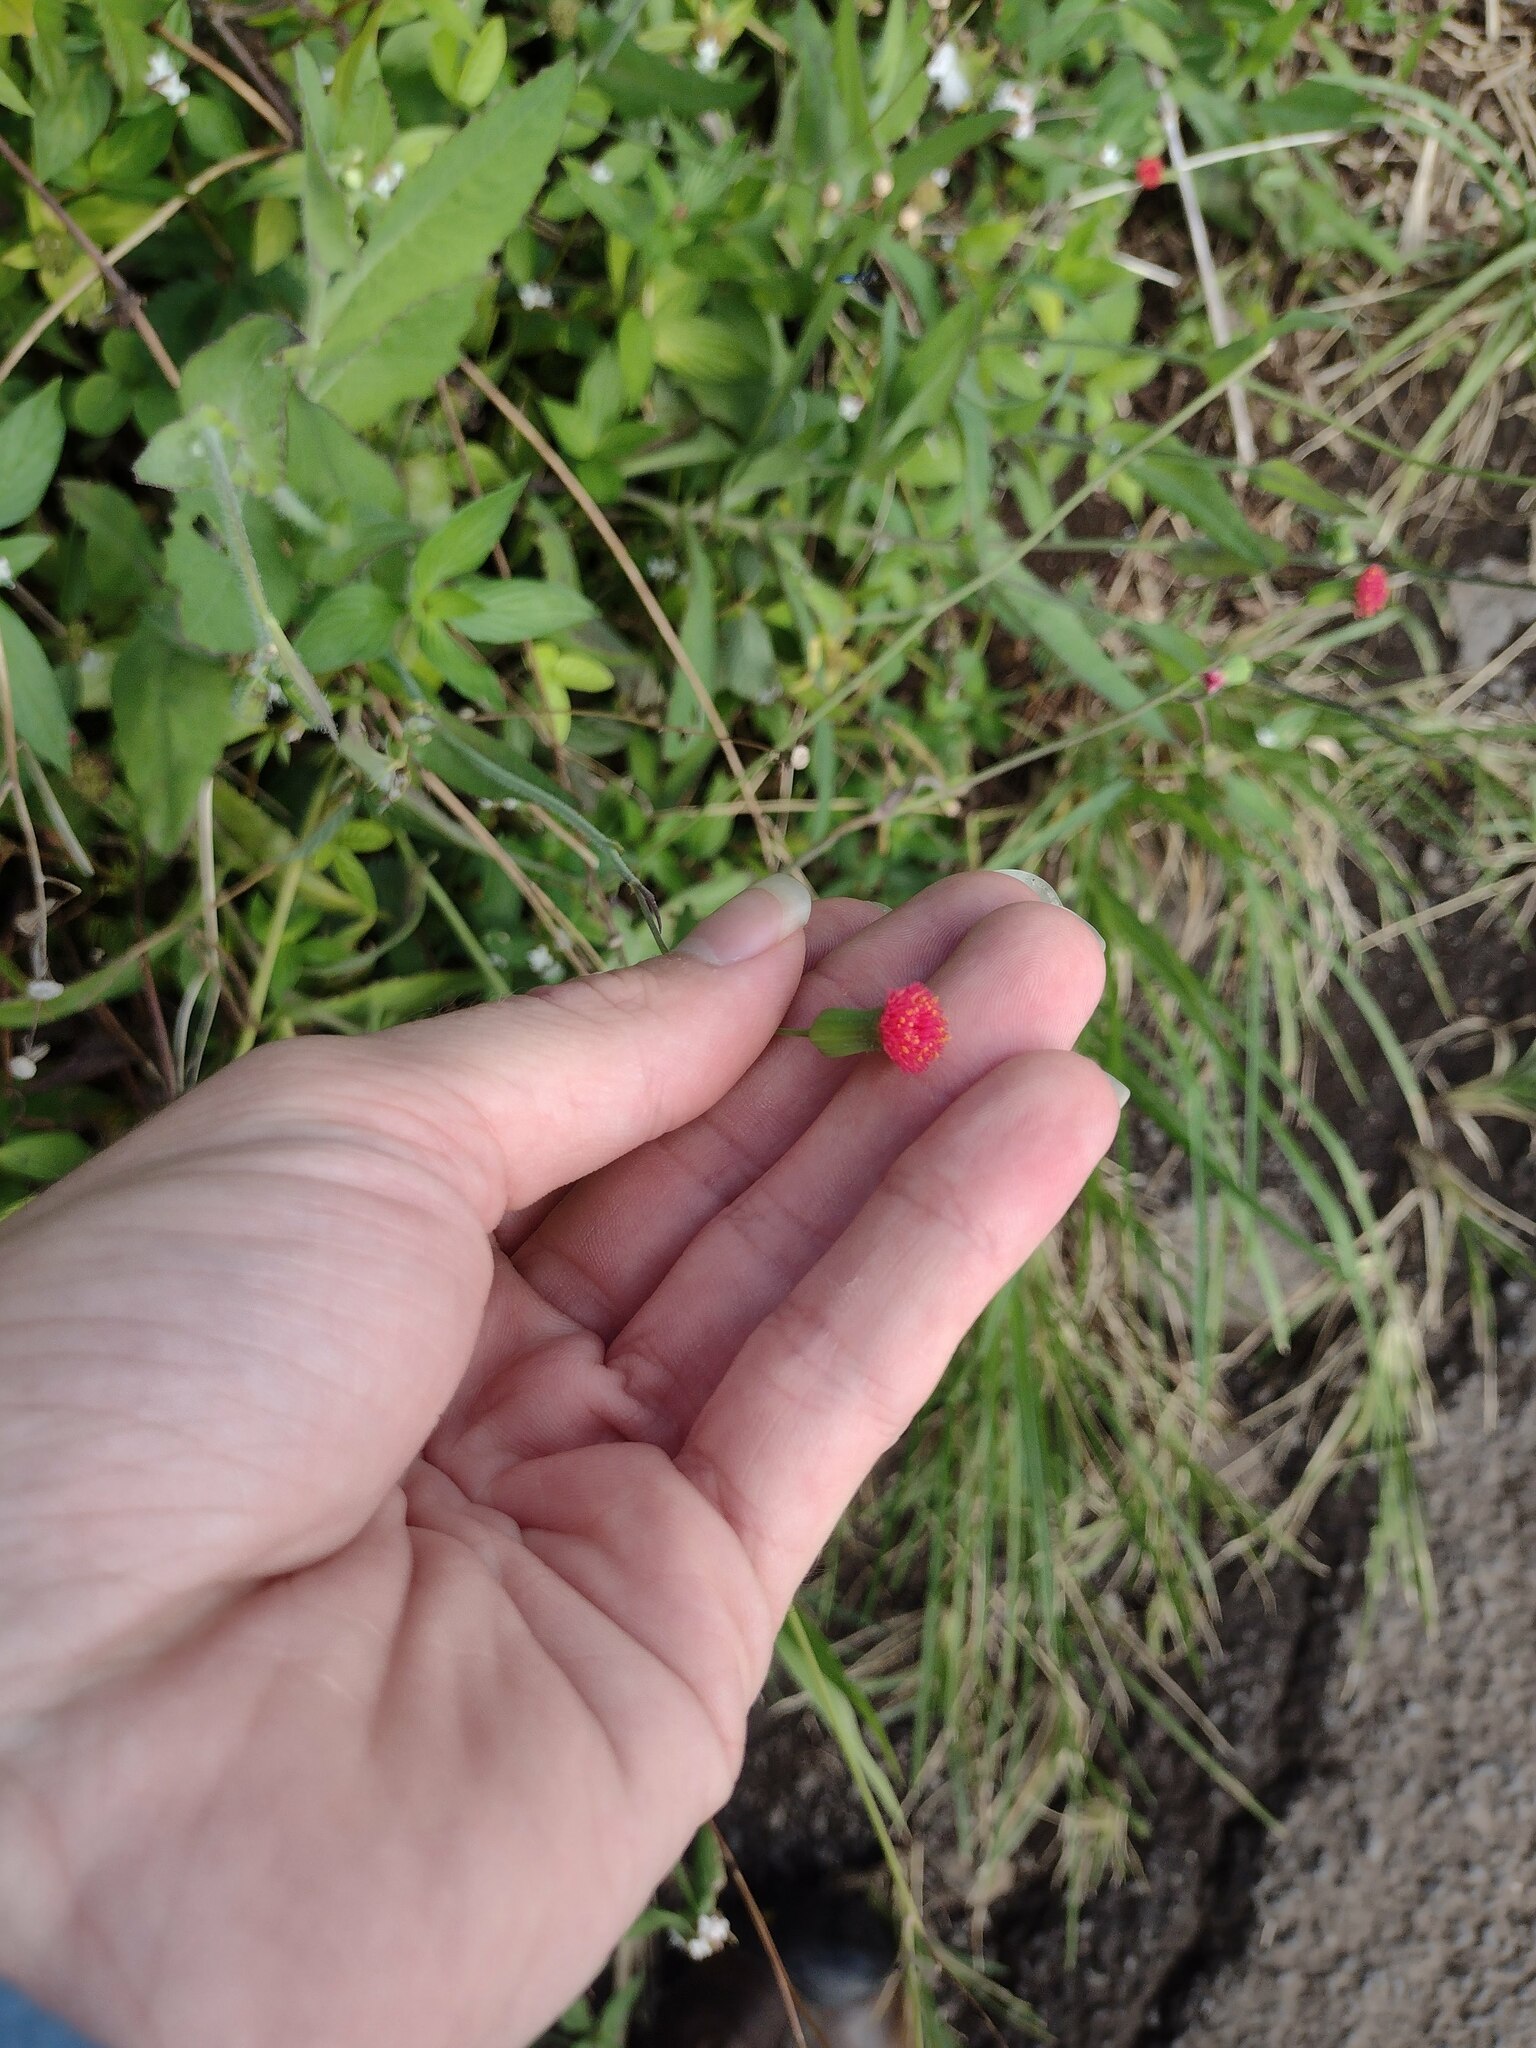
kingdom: Plantae
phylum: Tracheophyta
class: Magnoliopsida
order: Asterales
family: Asteraceae
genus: Emilia
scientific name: Emilia fosbergii
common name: Florida tasselflower
